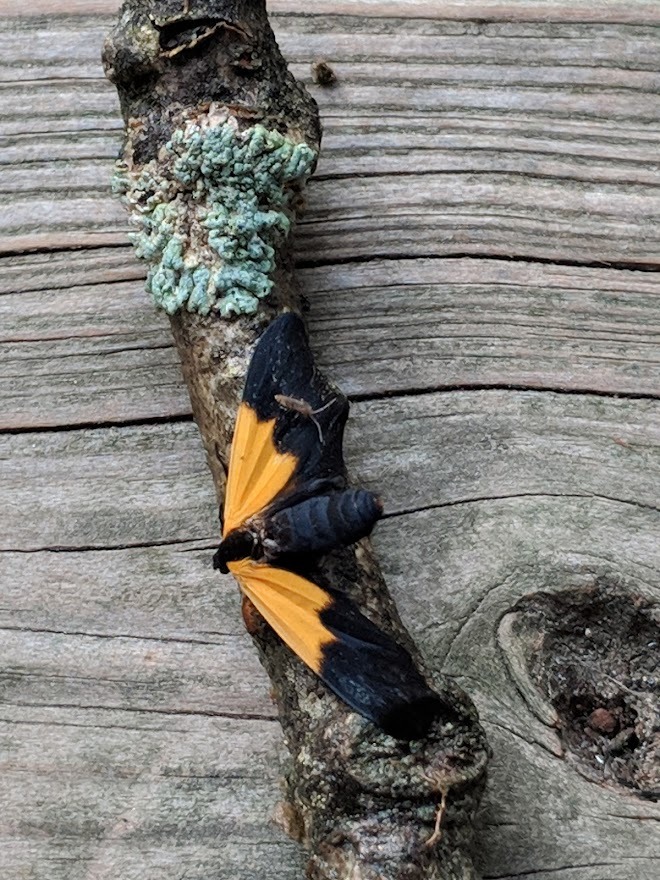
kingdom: Animalia
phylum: Arthropoda
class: Insecta
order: Lepidoptera
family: Erebidae
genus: Lycomorpha
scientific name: Lycomorpha pholus
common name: Black-and-yellow lichen moth
